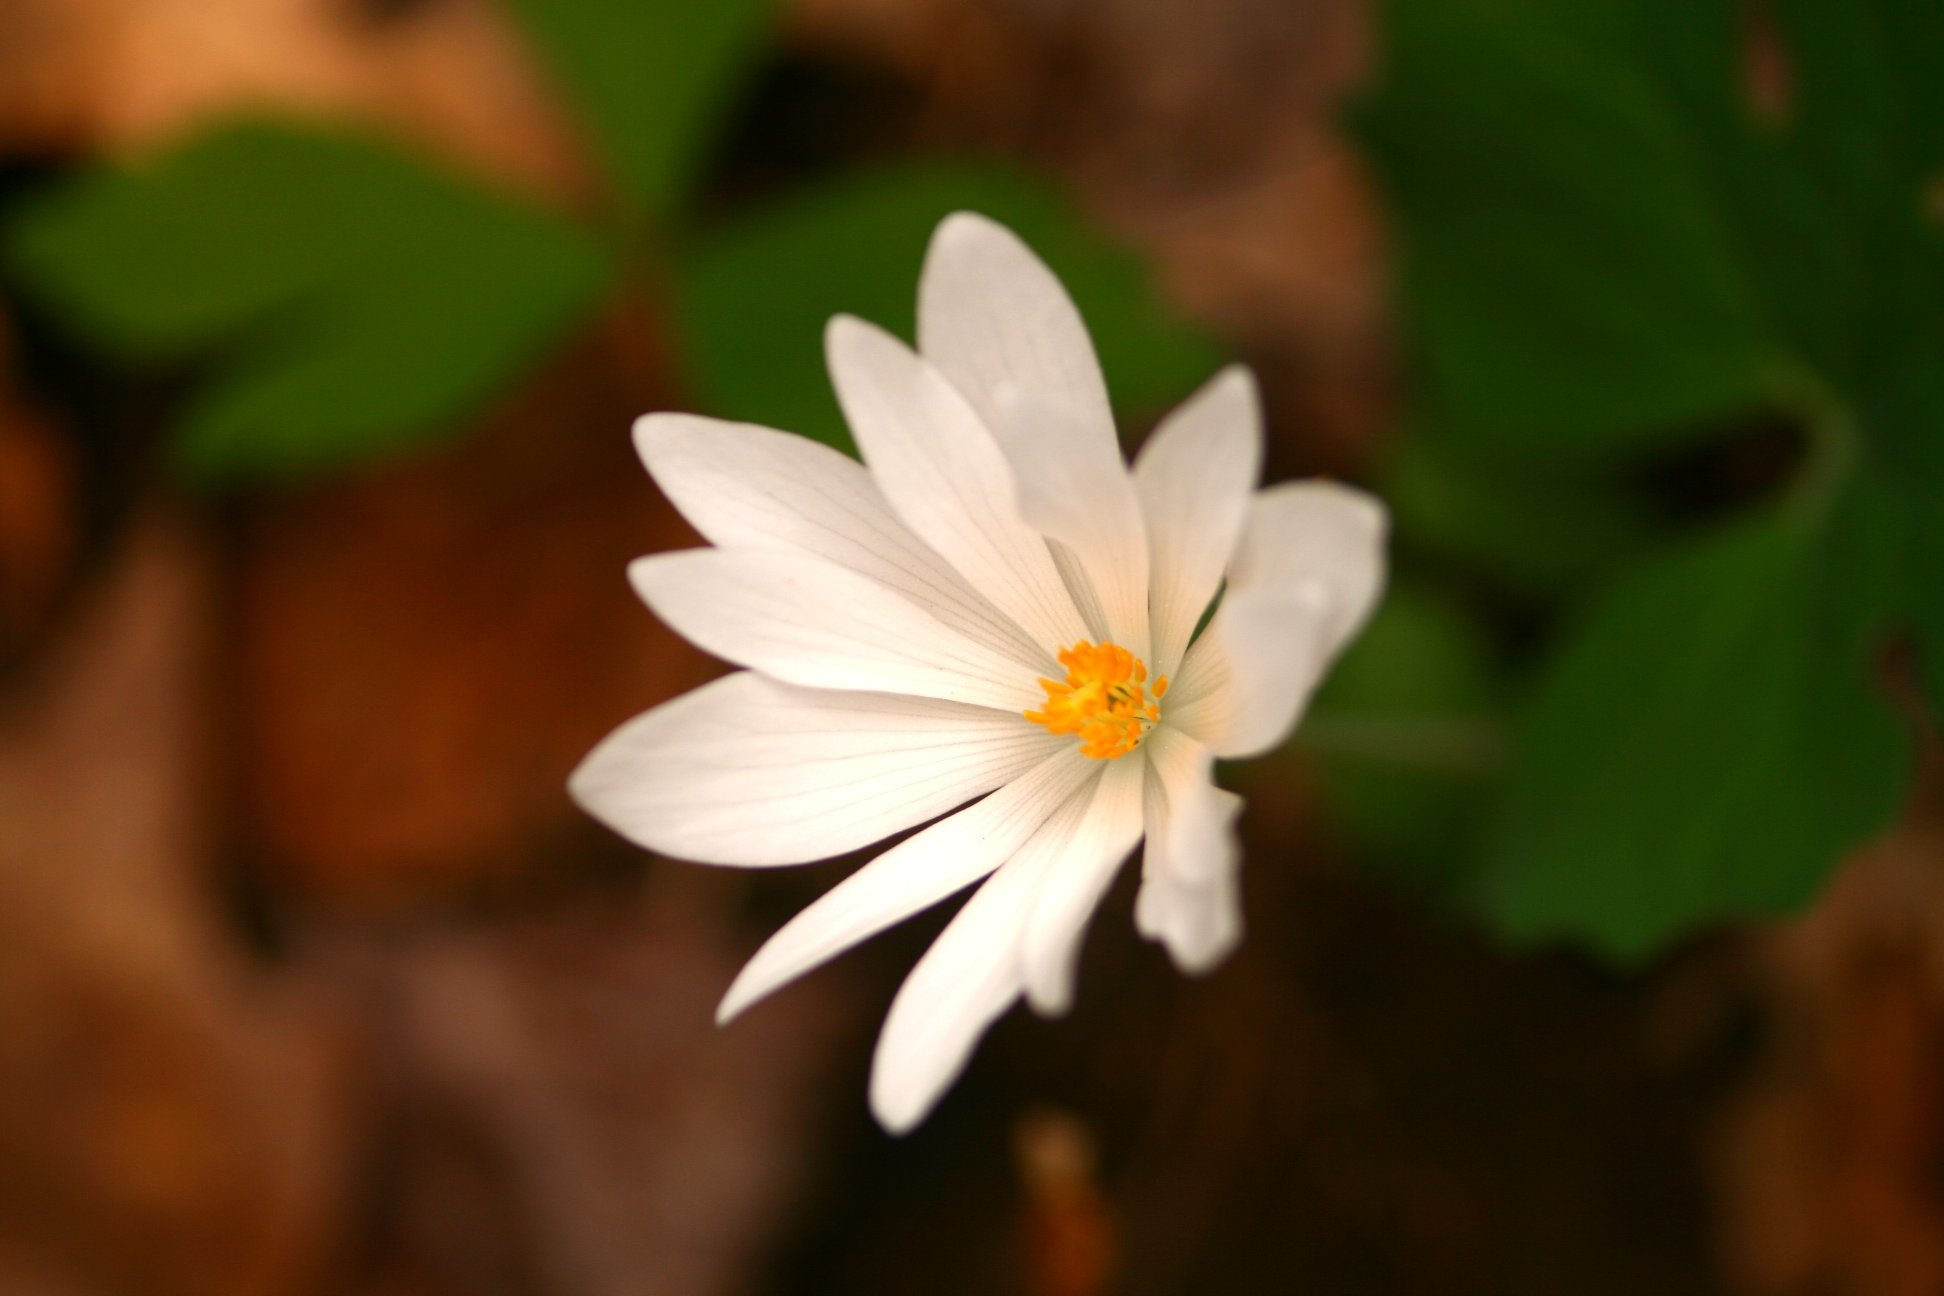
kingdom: Plantae
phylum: Tracheophyta
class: Magnoliopsida
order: Ranunculales
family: Papaveraceae
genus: Sanguinaria
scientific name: Sanguinaria canadensis
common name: Bloodroot
